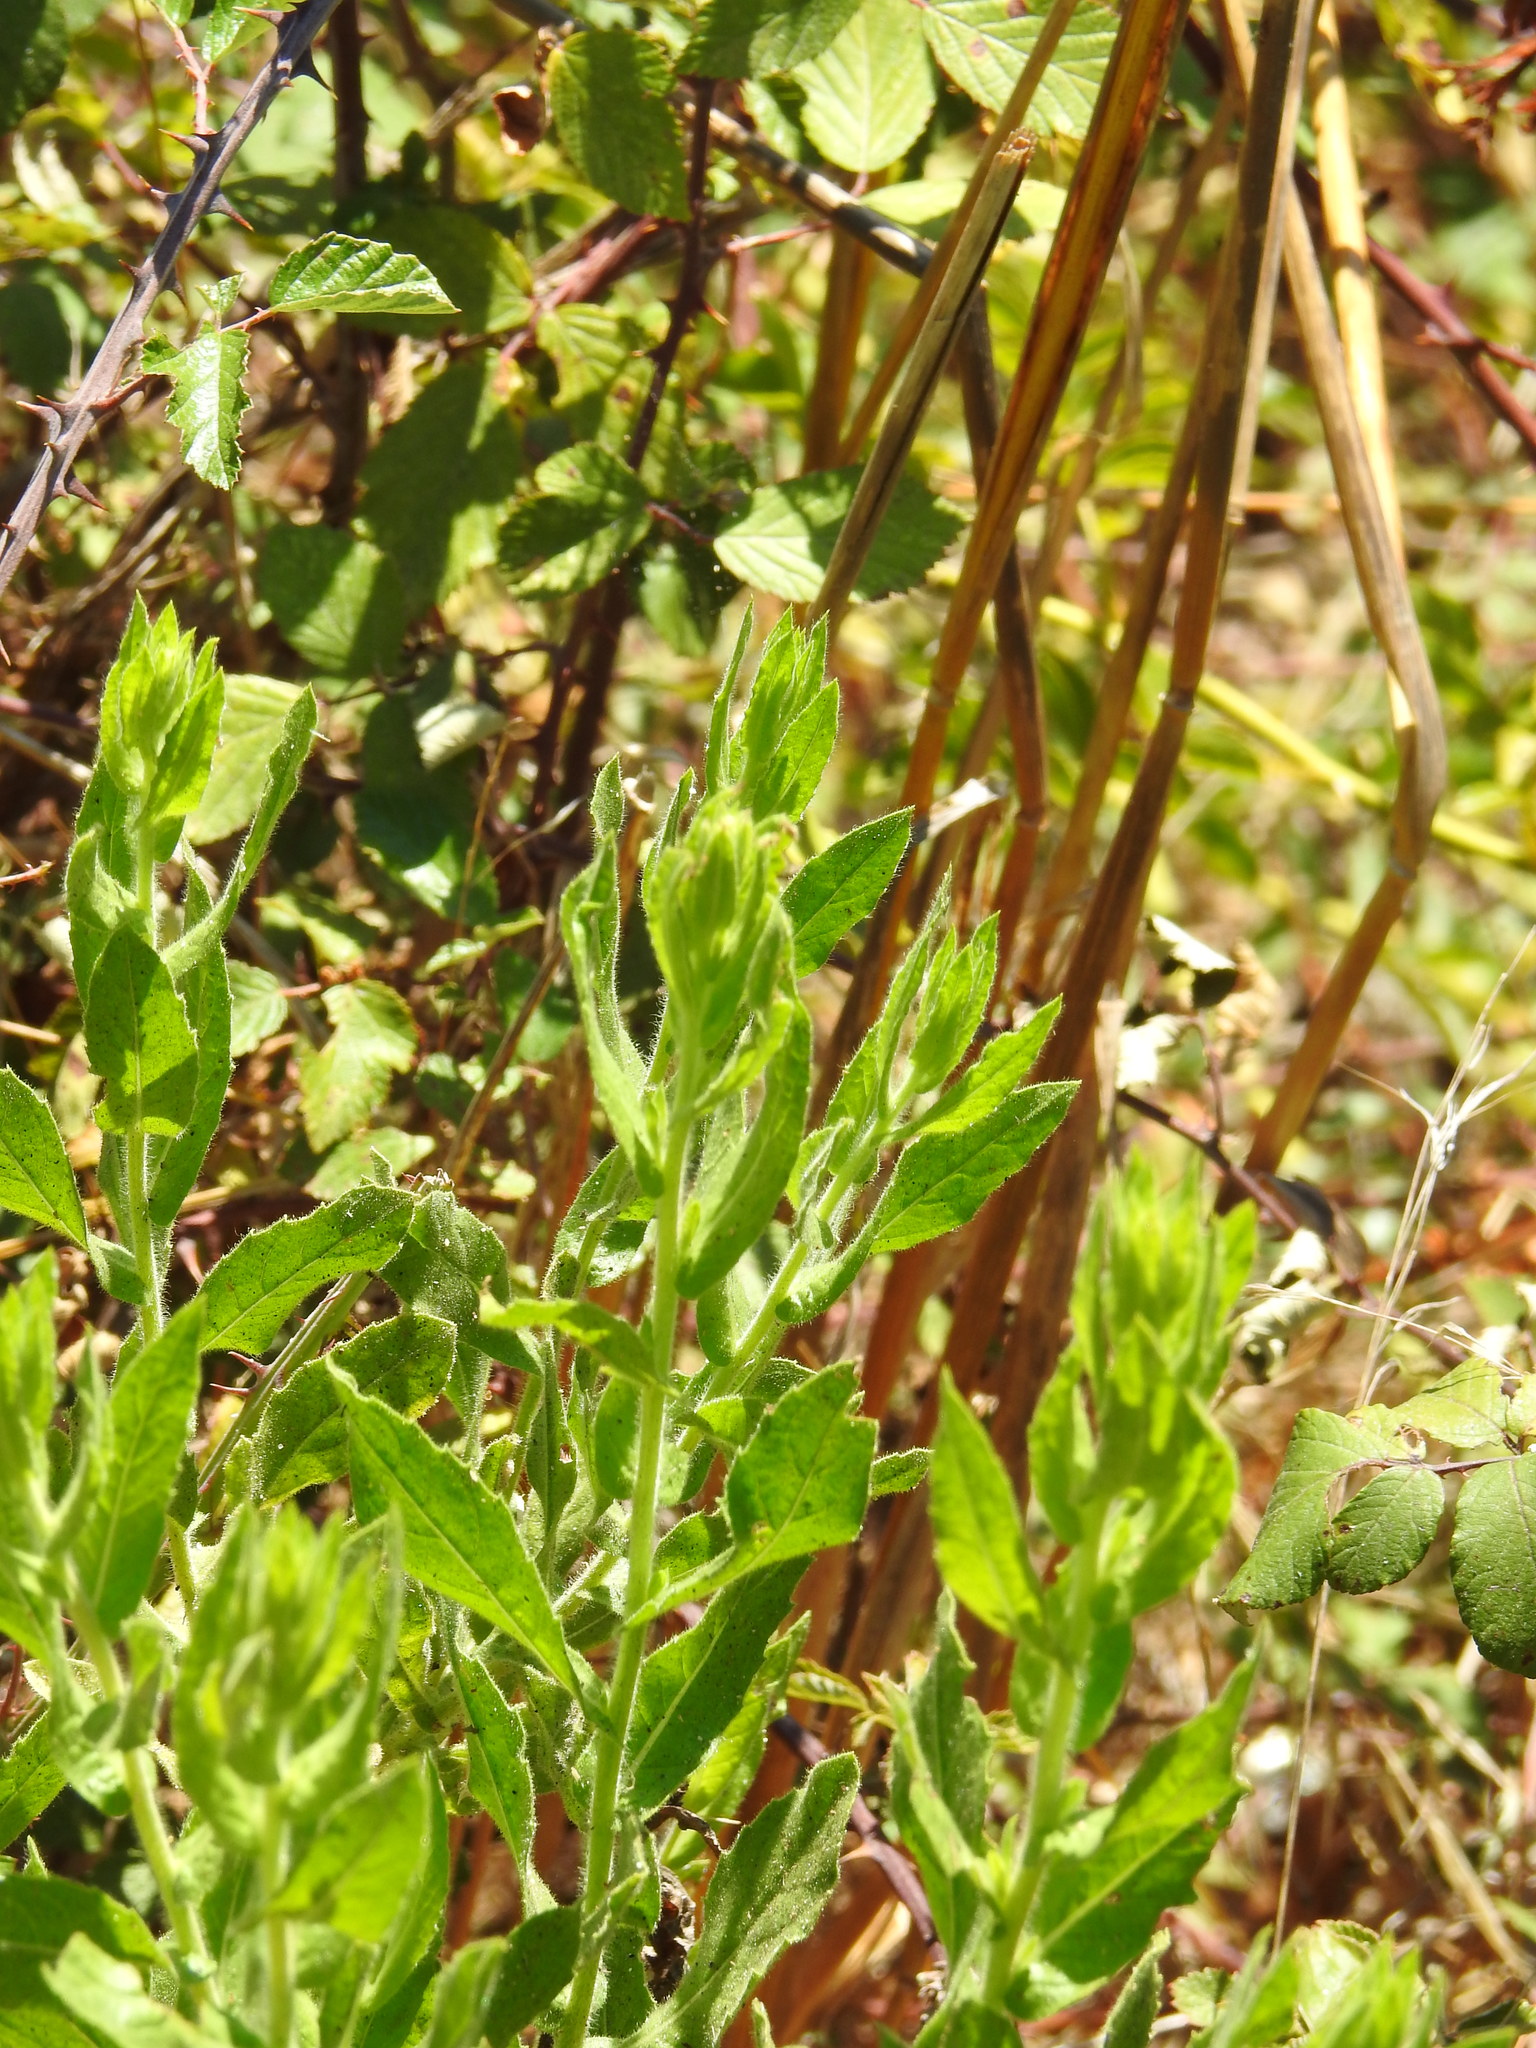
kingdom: Plantae
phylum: Tracheophyta
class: Magnoliopsida
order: Asterales
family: Asteraceae
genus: Dittrichia
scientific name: Dittrichia viscosa
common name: Woody fleabane
